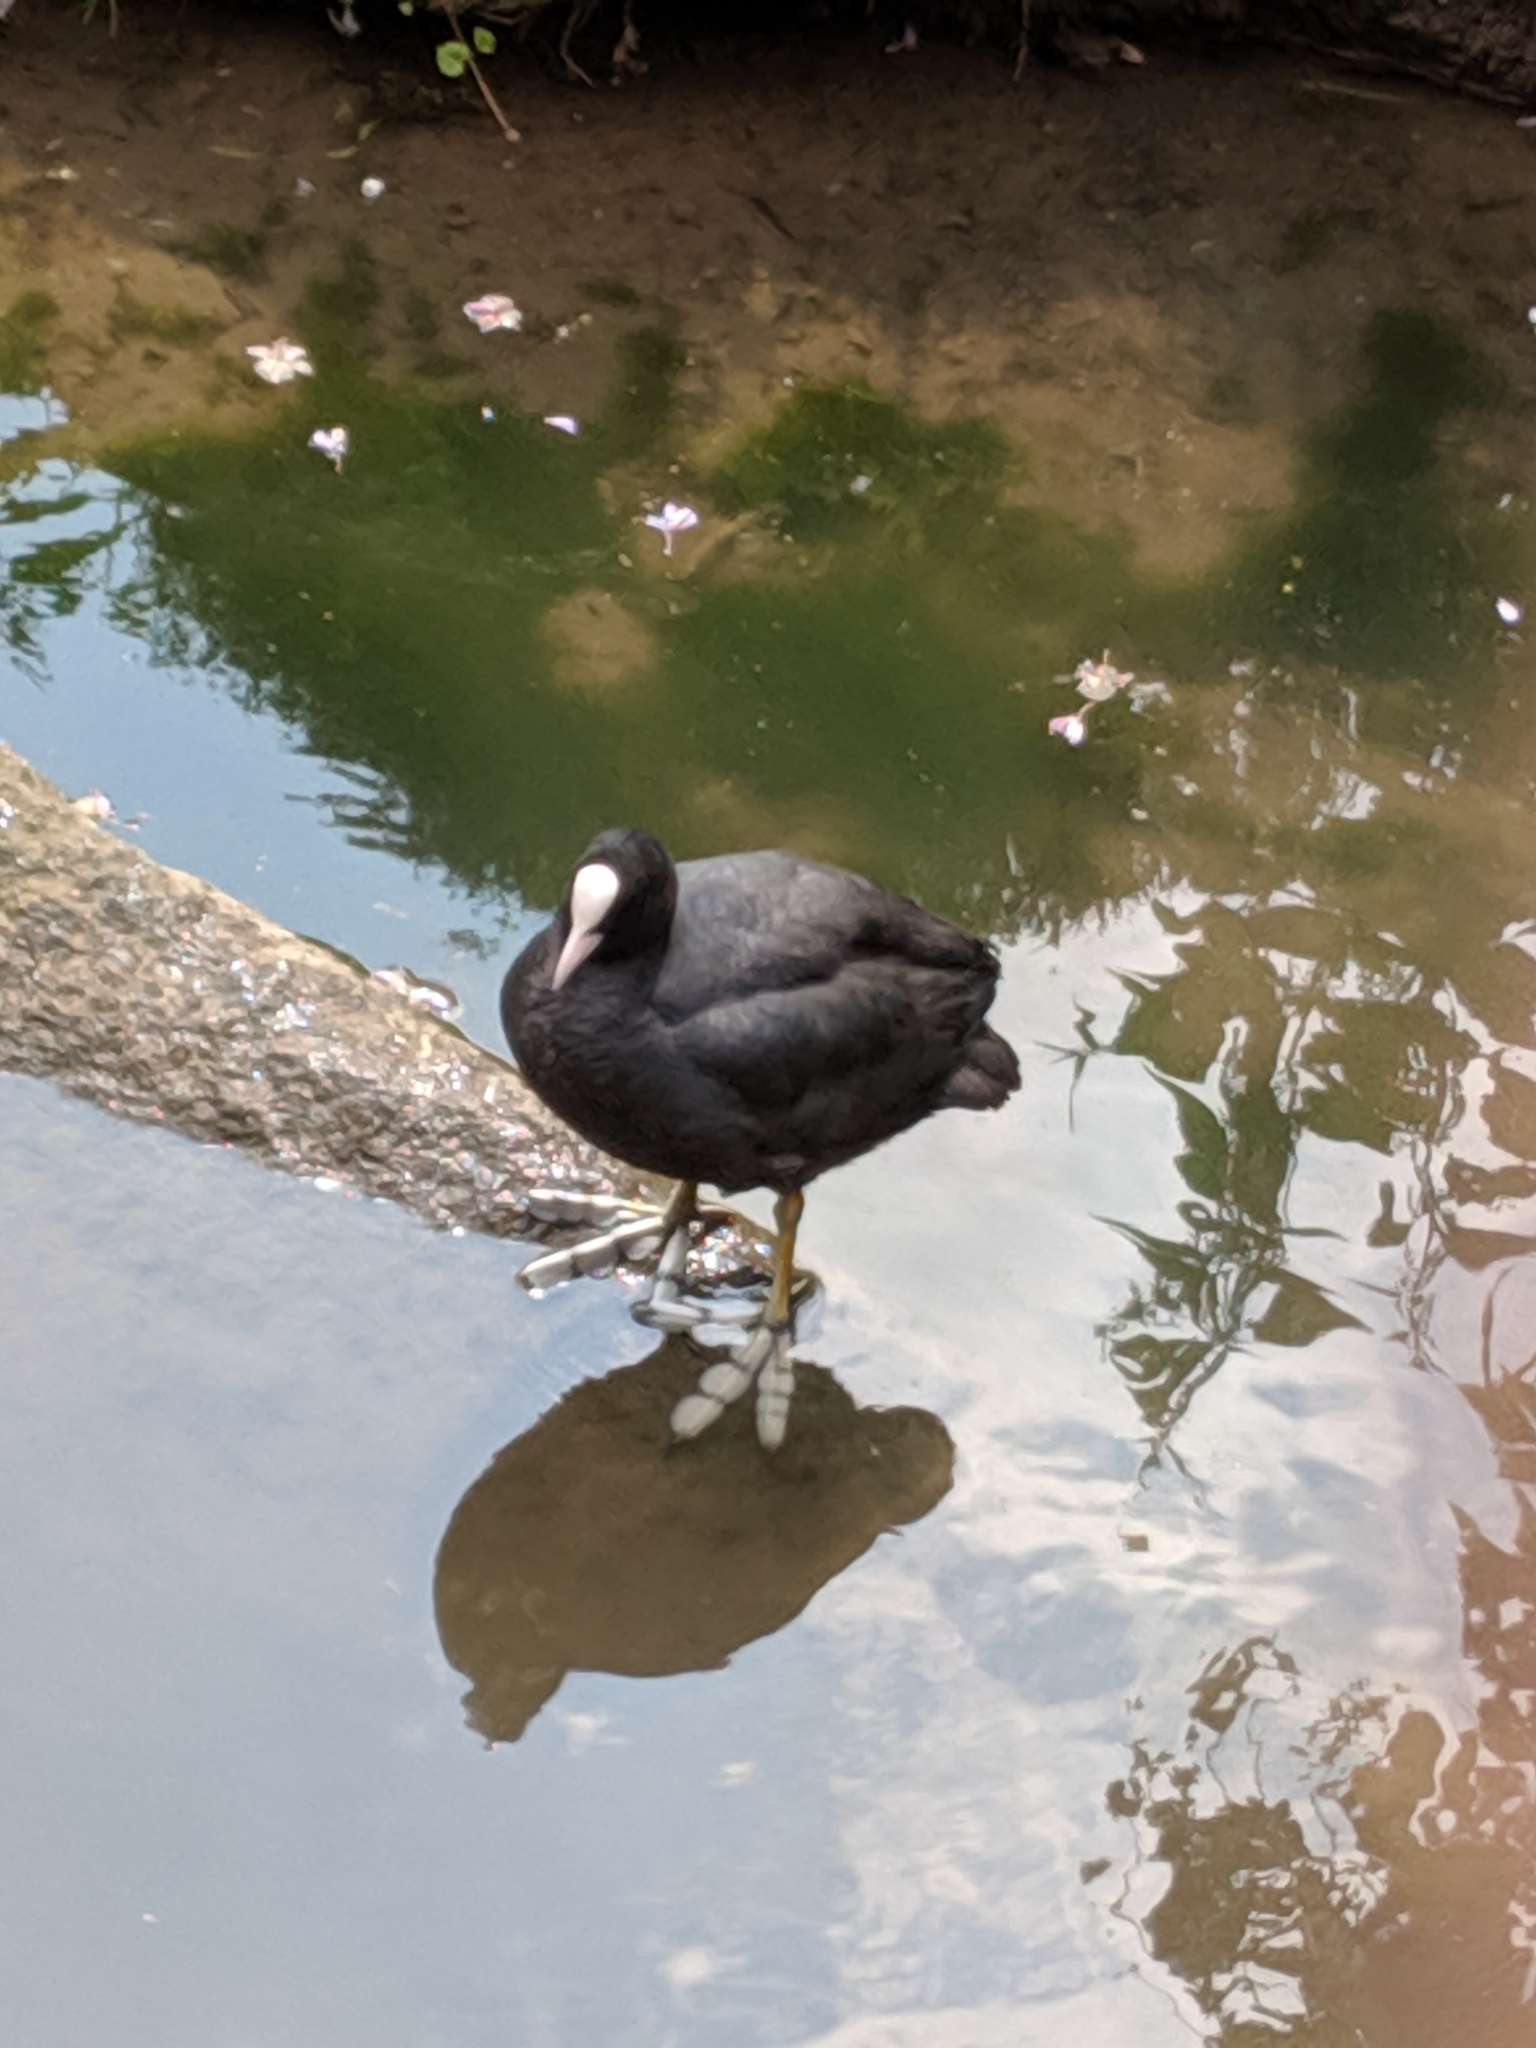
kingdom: Animalia
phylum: Chordata
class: Aves
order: Gruiformes
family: Rallidae
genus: Fulica
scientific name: Fulica atra
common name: Eurasian coot
